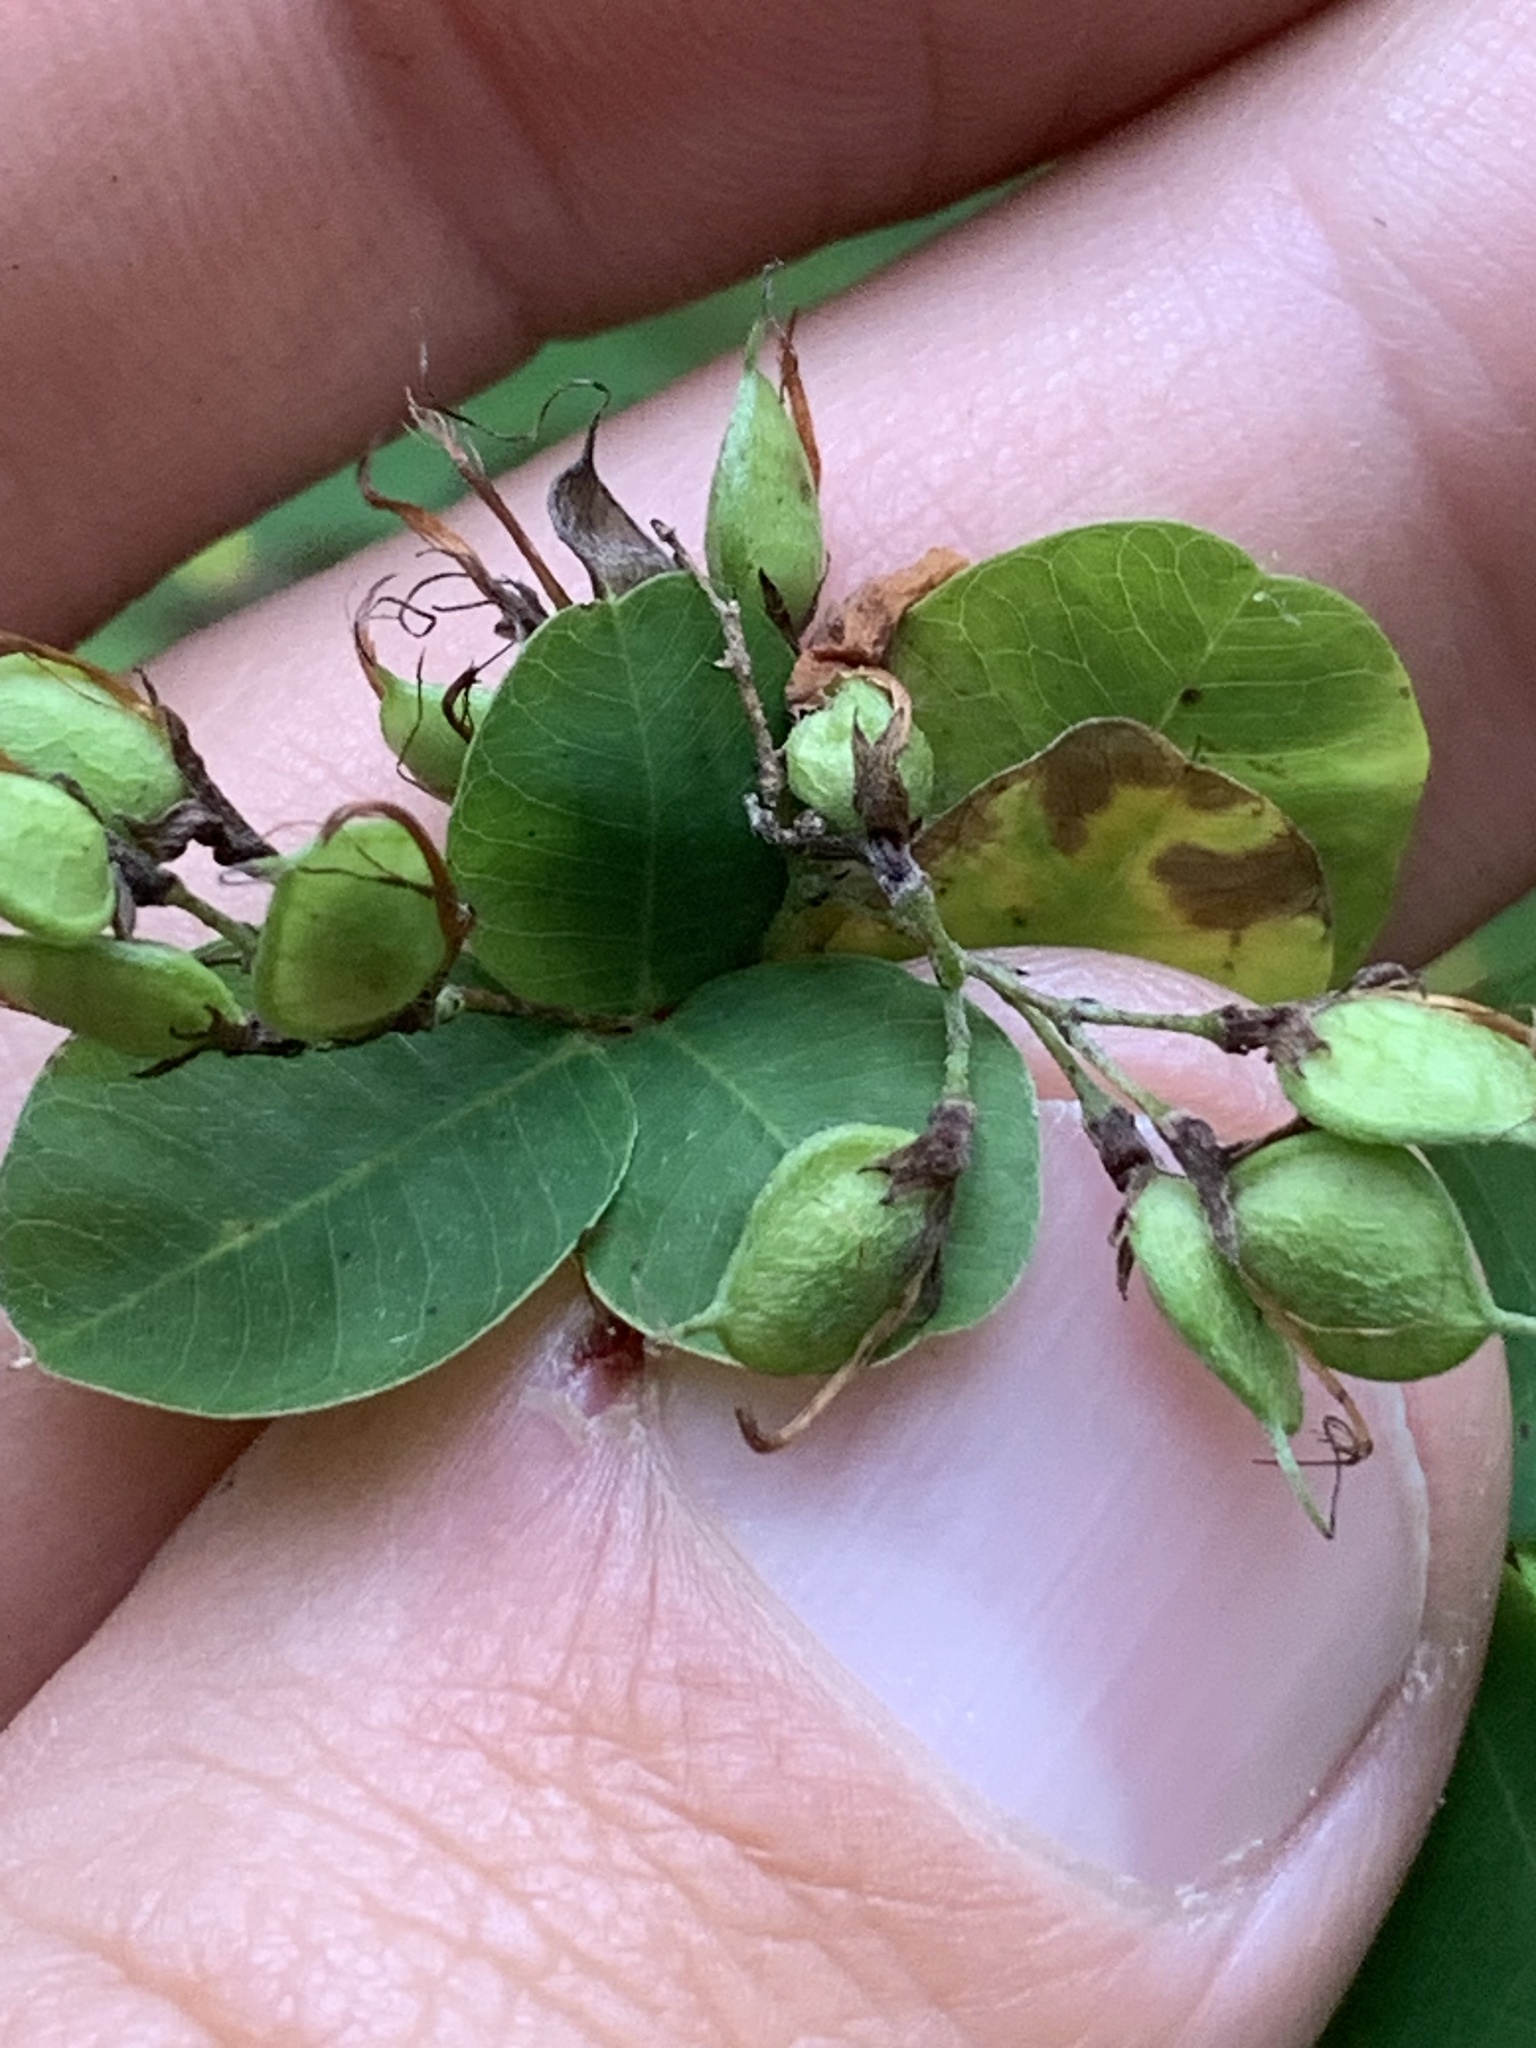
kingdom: Plantae
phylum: Tracheophyta
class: Magnoliopsida
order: Fabales
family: Fabaceae
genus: Lespedeza
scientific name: Lespedeza bicolor
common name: Shrub lespedeza
